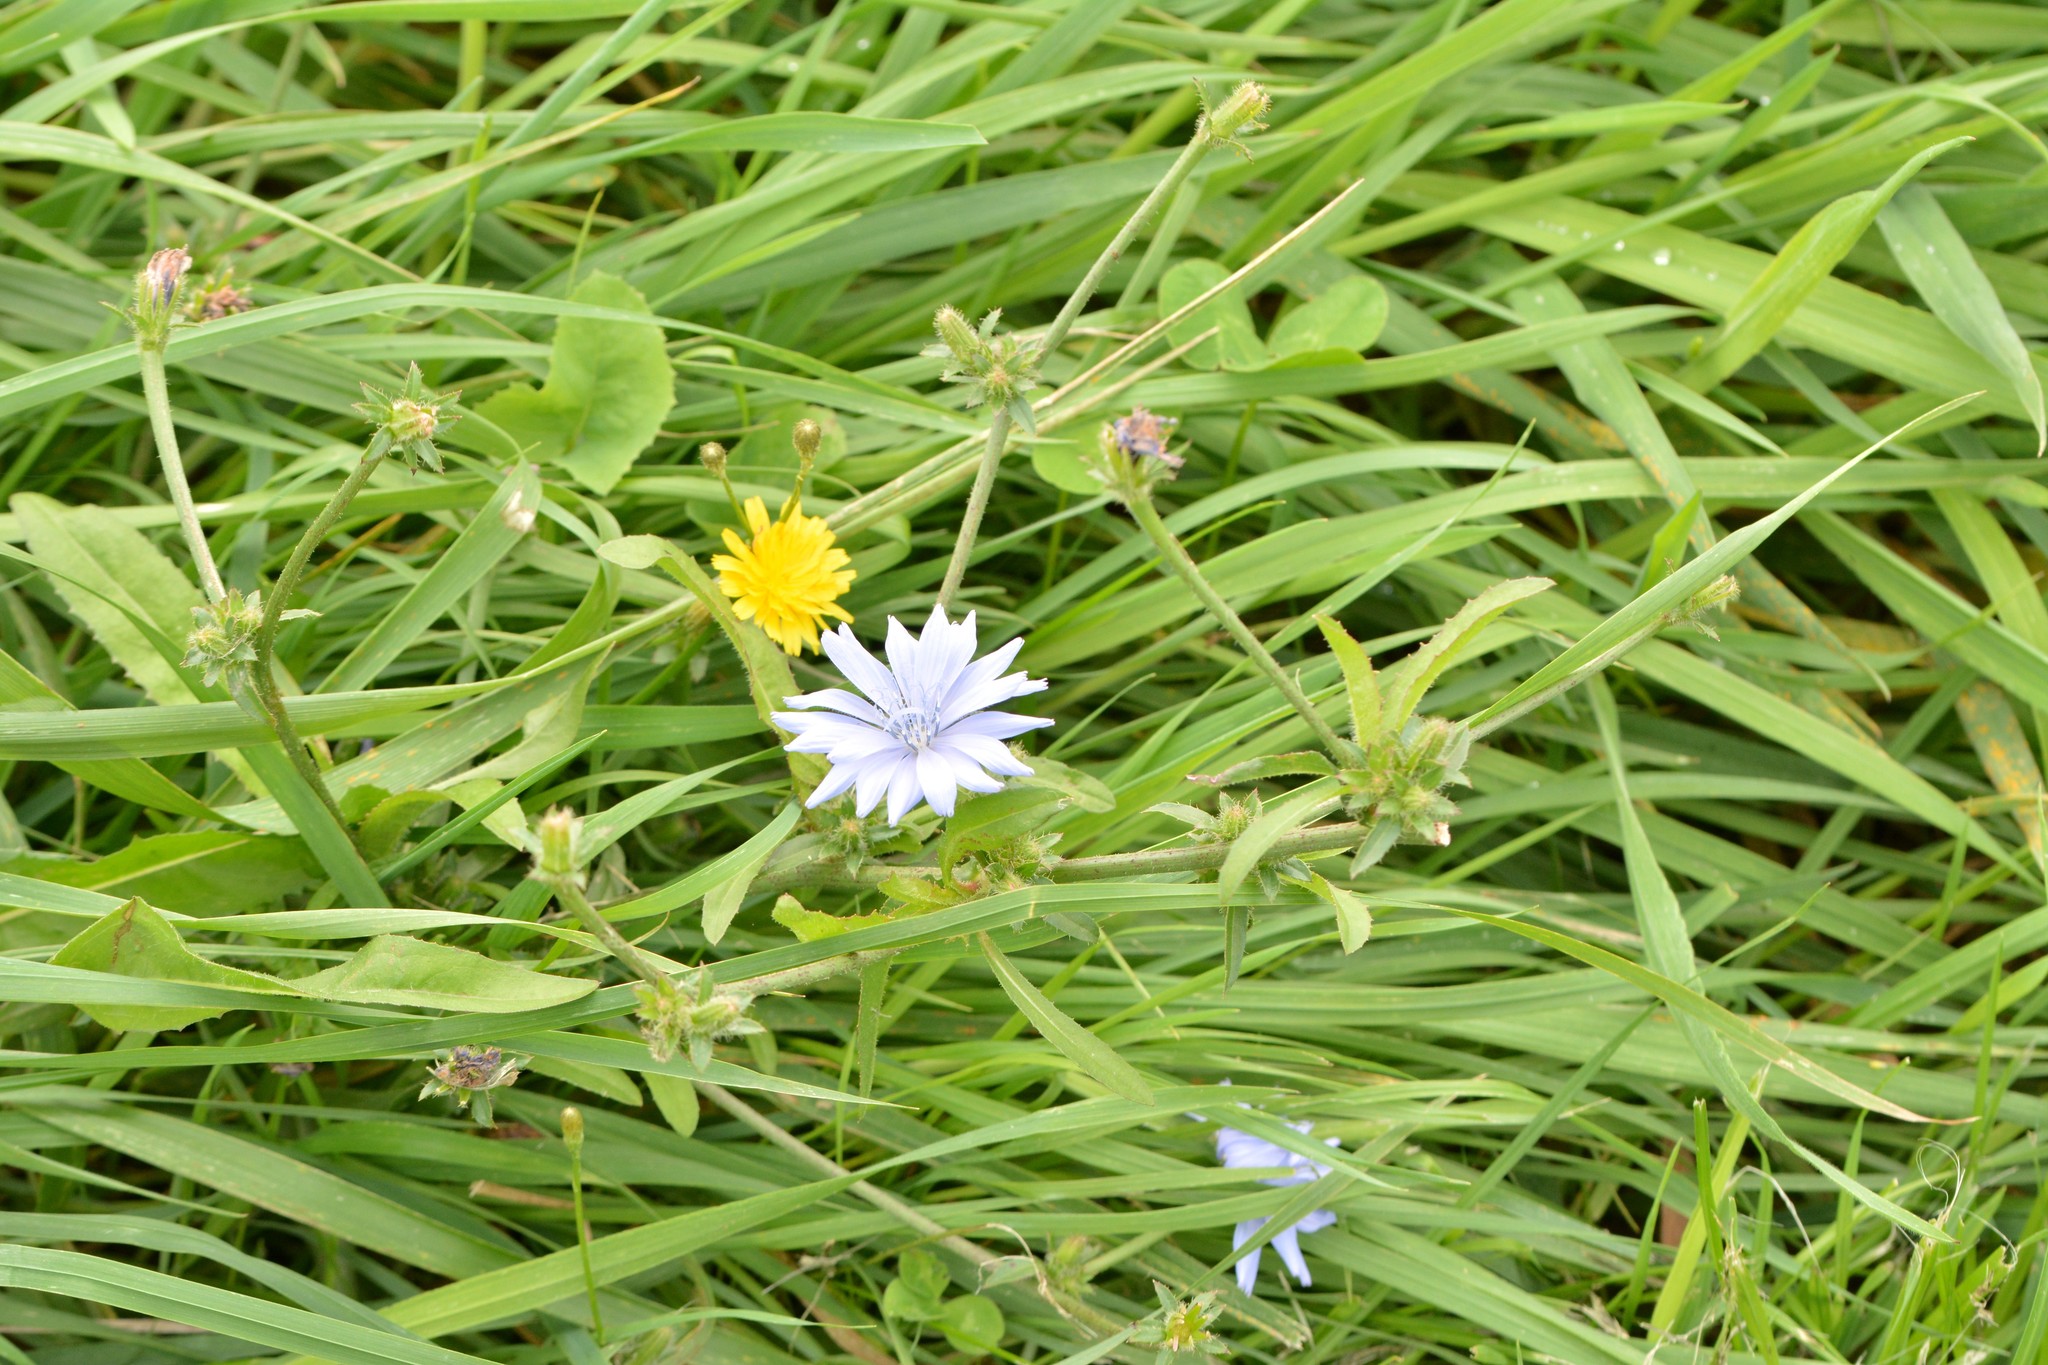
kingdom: Plantae
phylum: Tracheophyta
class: Magnoliopsida
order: Asterales
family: Asteraceae
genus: Cichorium
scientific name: Cichorium intybus
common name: Chicory
